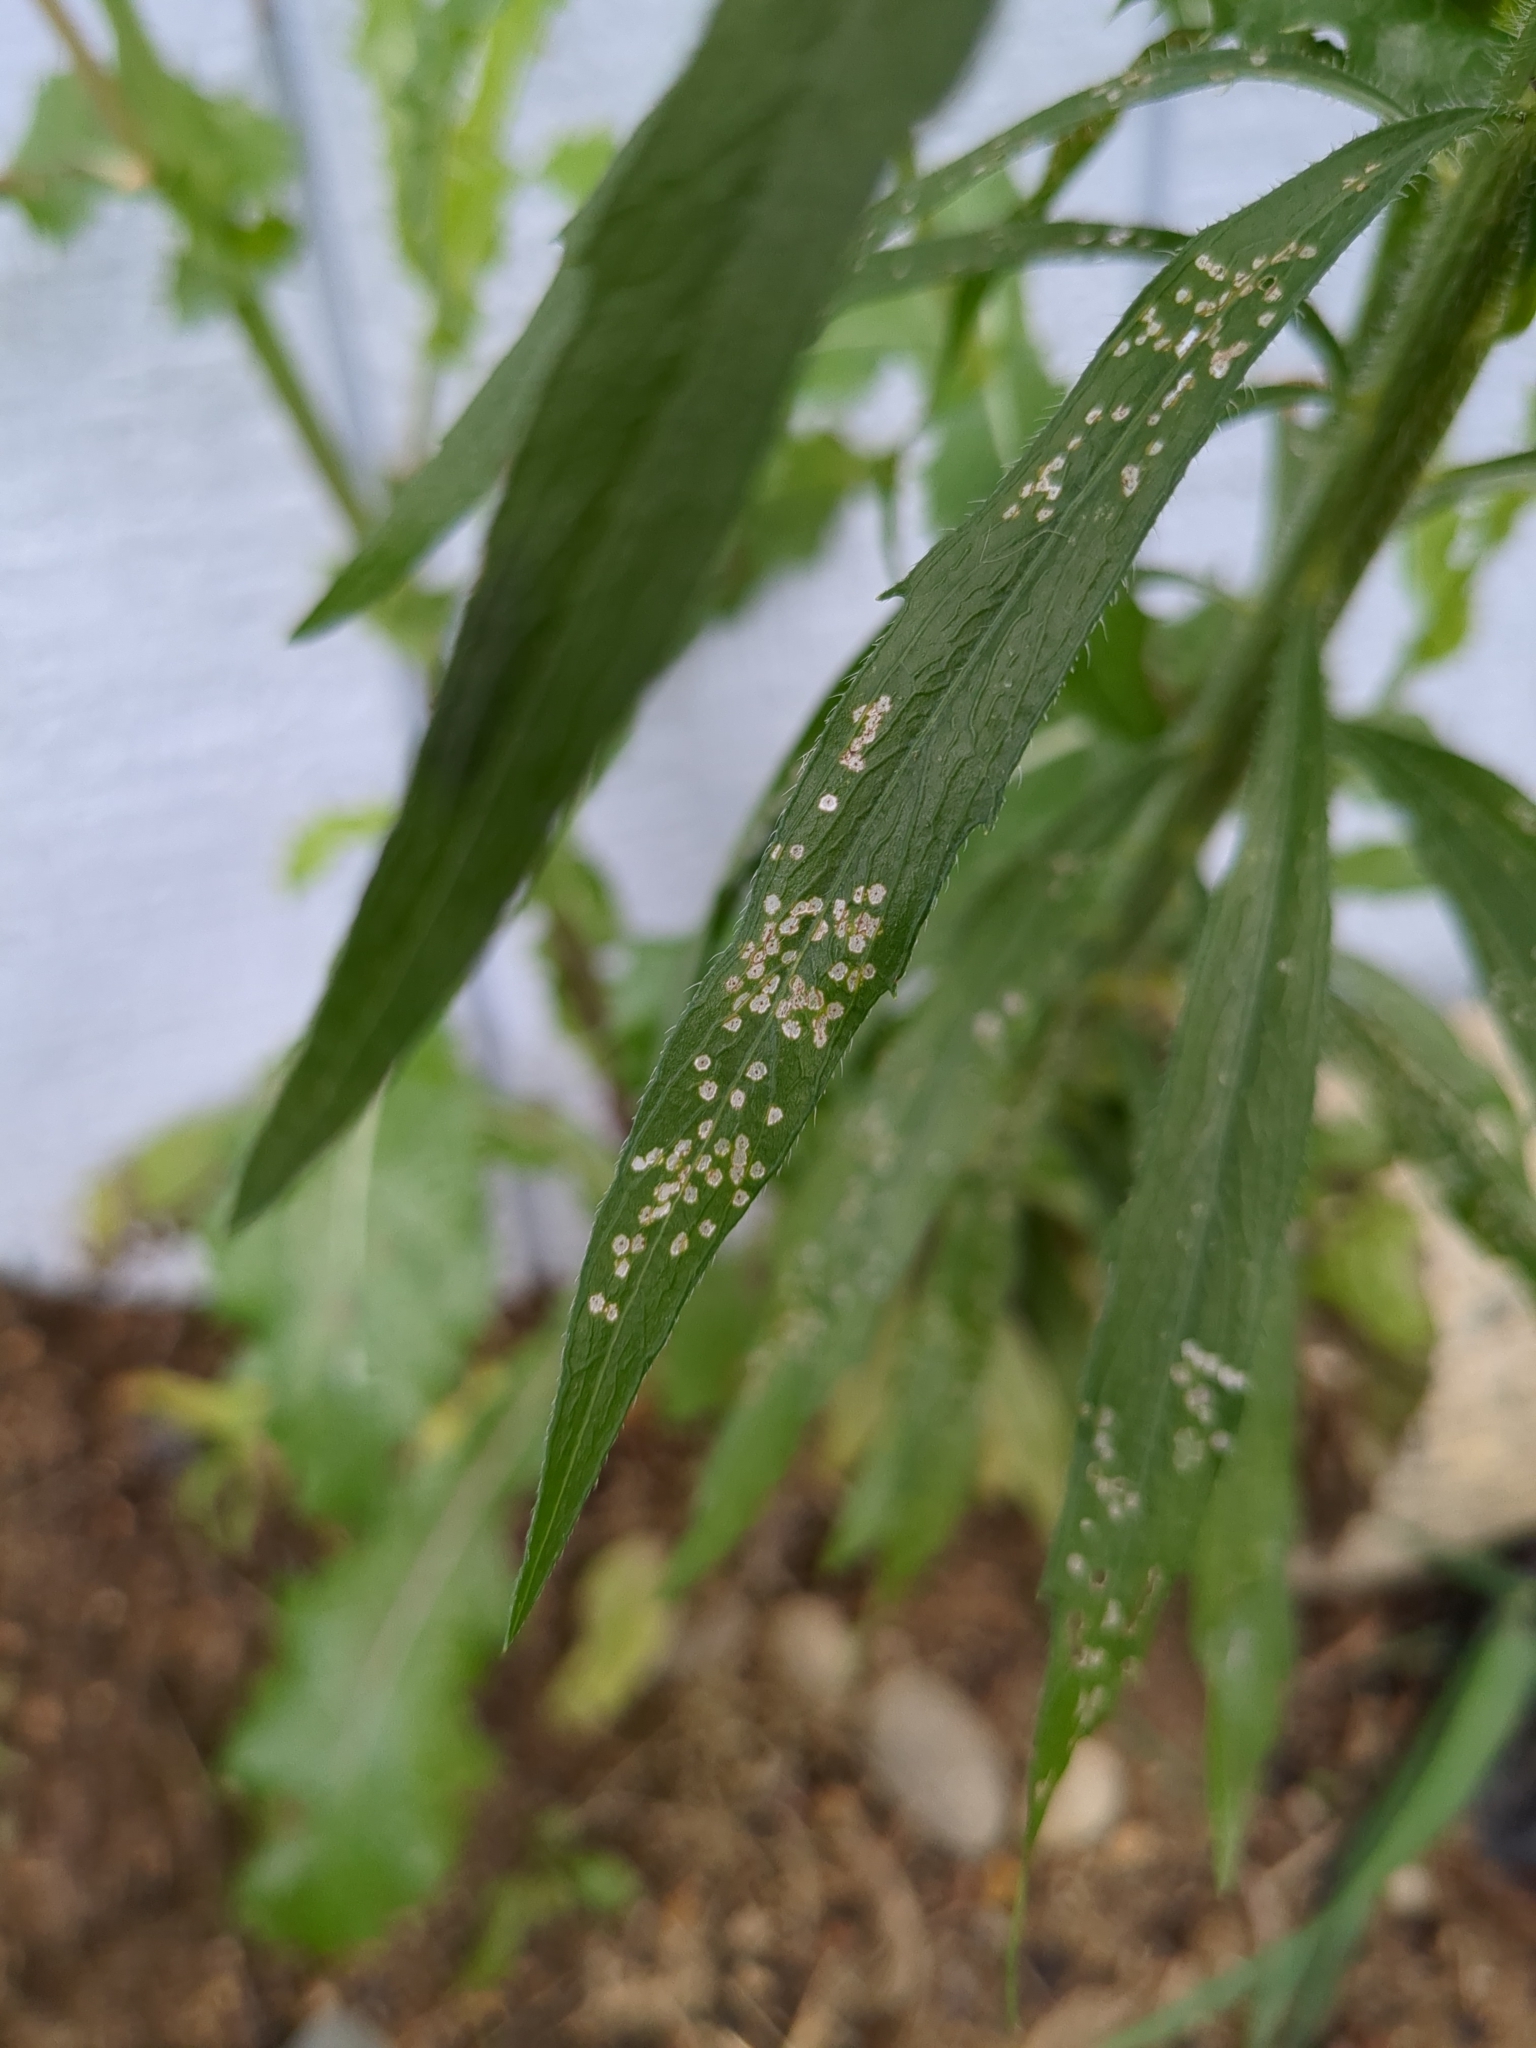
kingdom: Fungi
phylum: Ascomycota
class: Dothideomycetes
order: Capnodiales
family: Mycosphaerellaceae
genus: Septoria
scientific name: Septoria erigerontis
